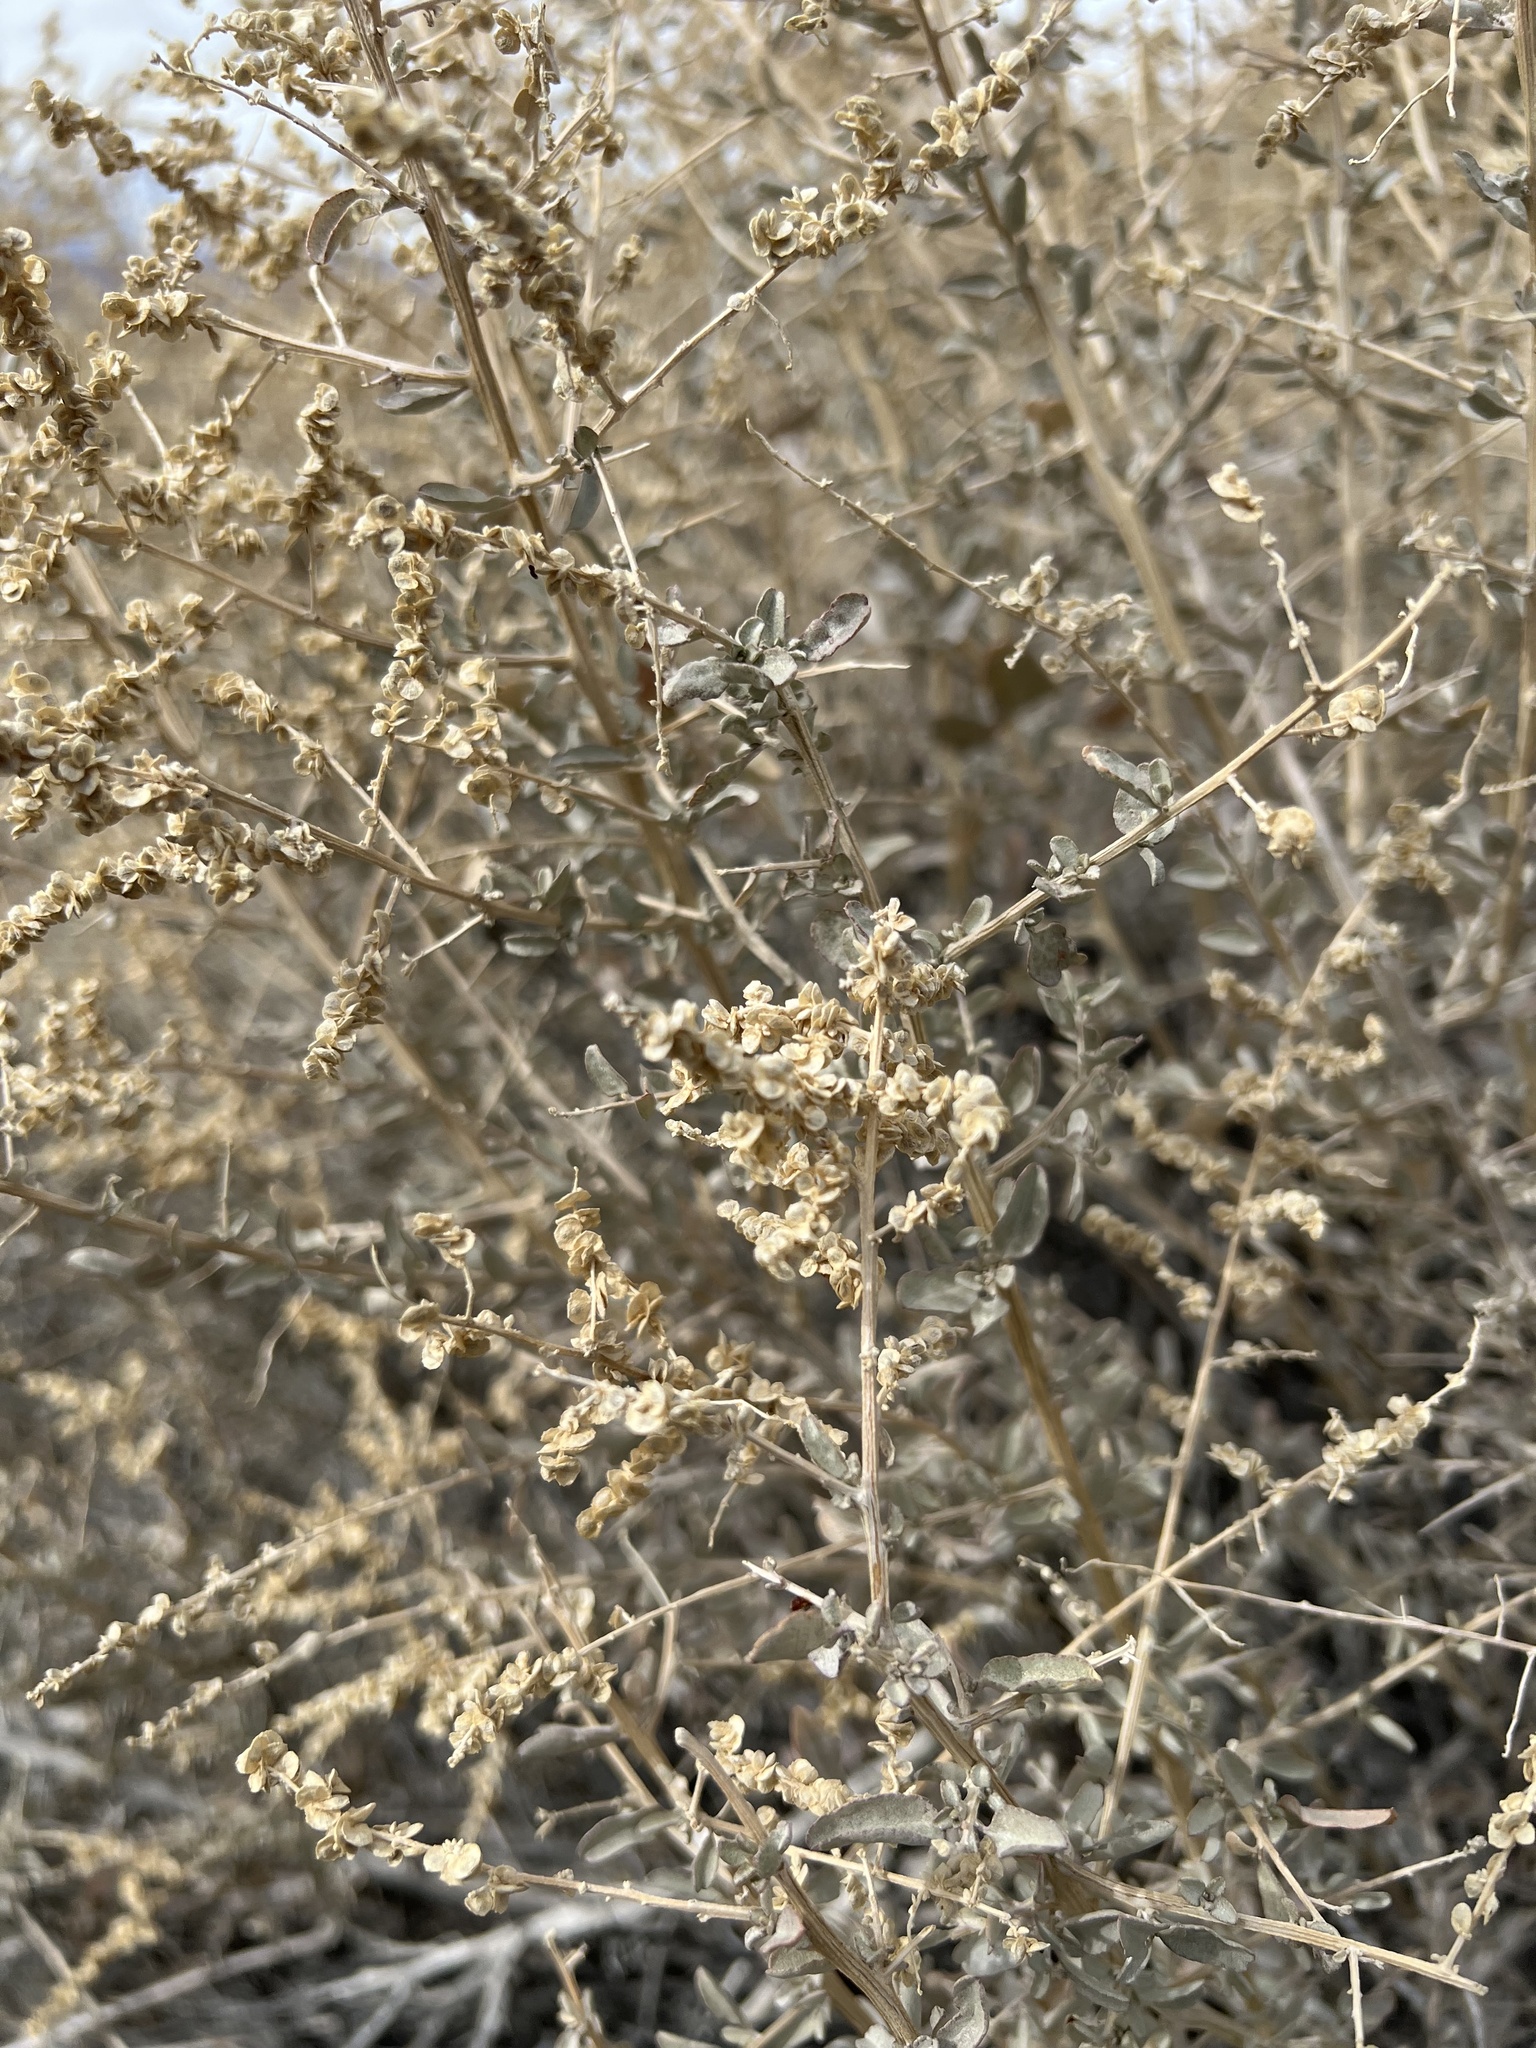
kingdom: Plantae
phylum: Tracheophyta
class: Magnoliopsida
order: Caryophyllales
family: Amaranthaceae
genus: Atriplex
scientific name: Atriplex torreyi
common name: Torrey's saltbush
